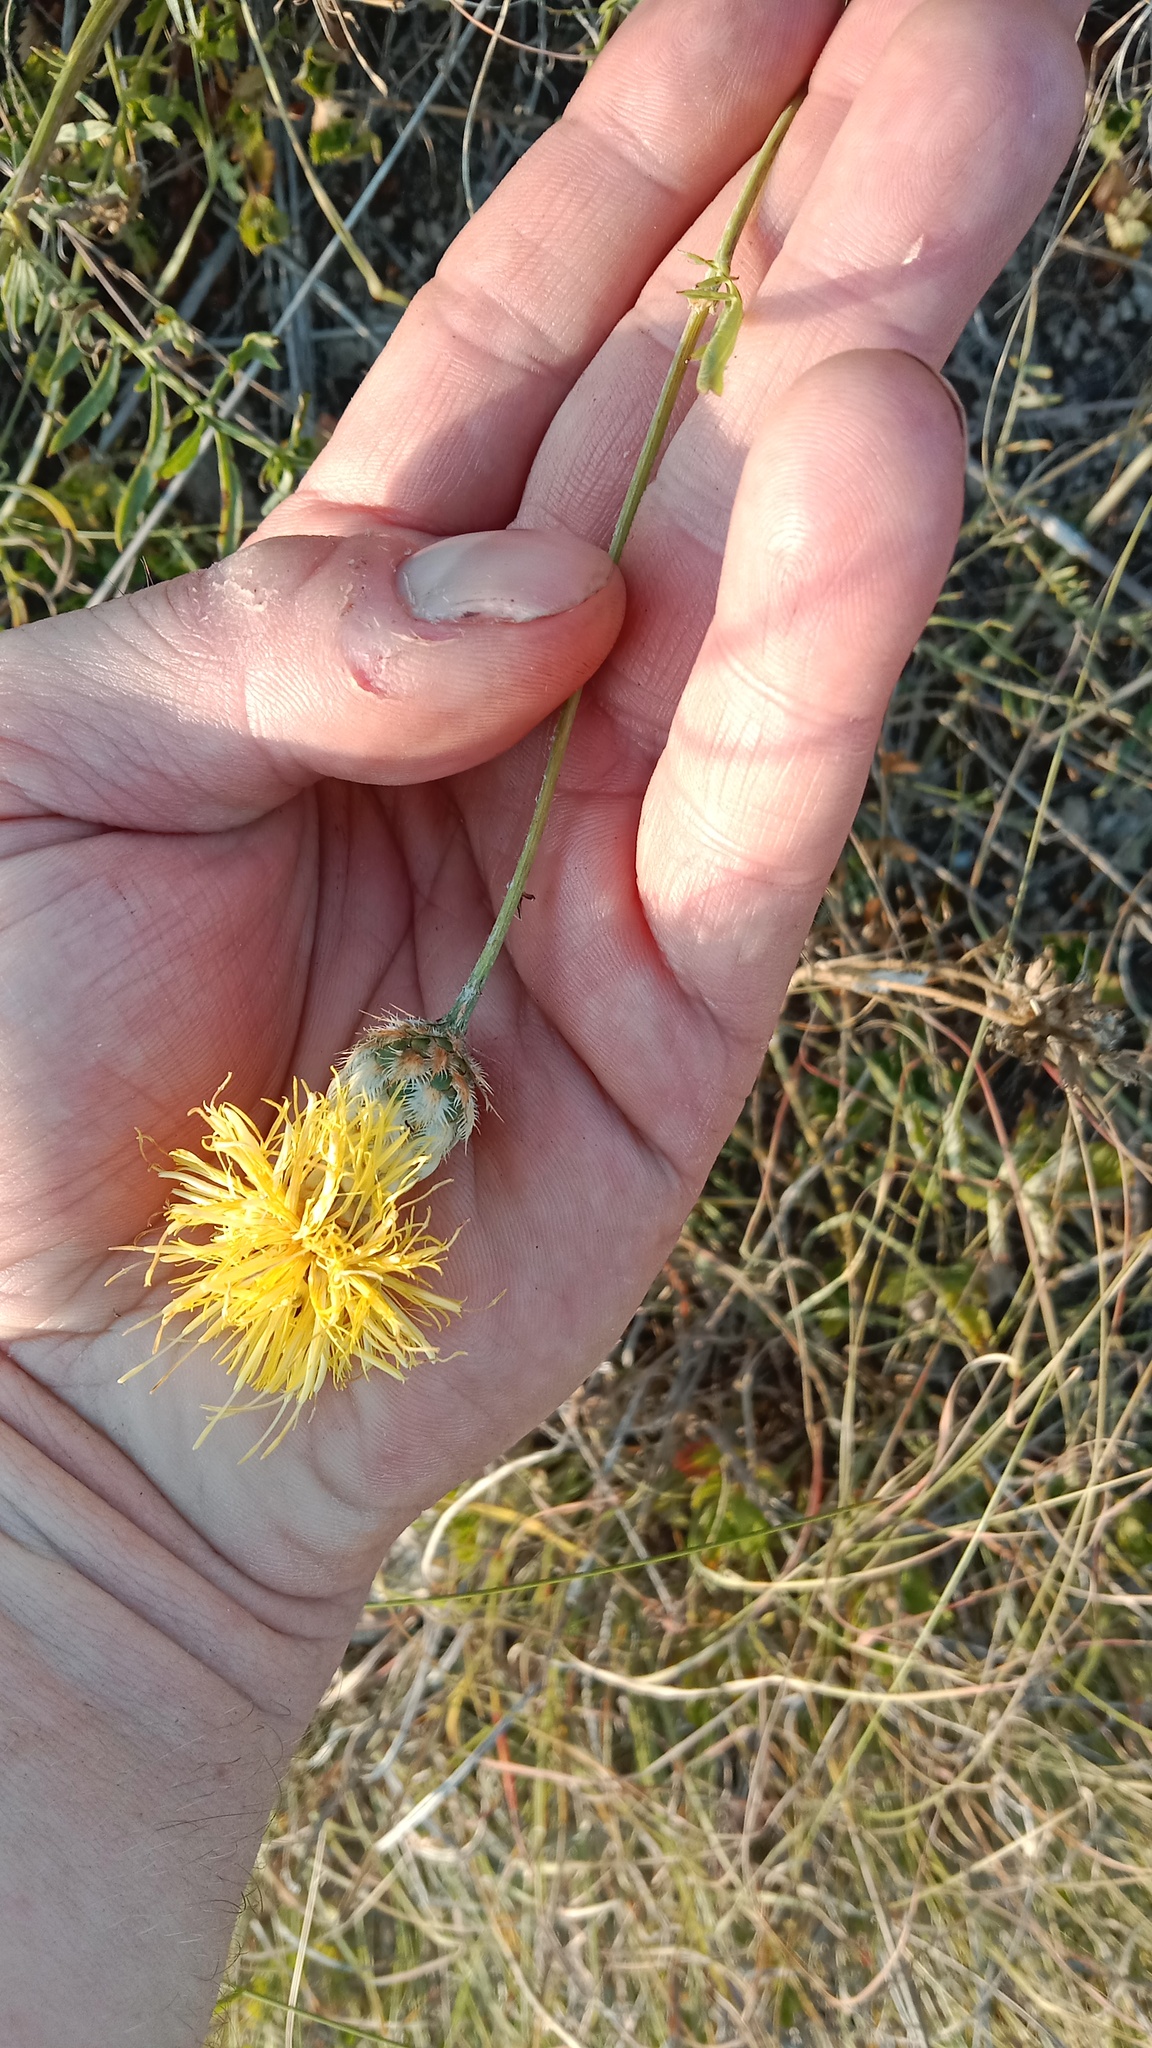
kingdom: Plantae
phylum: Tracheophyta
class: Magnoliopsida
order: Asterales
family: Asteraceae
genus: Centaurea
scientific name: Centaurea orientalis
